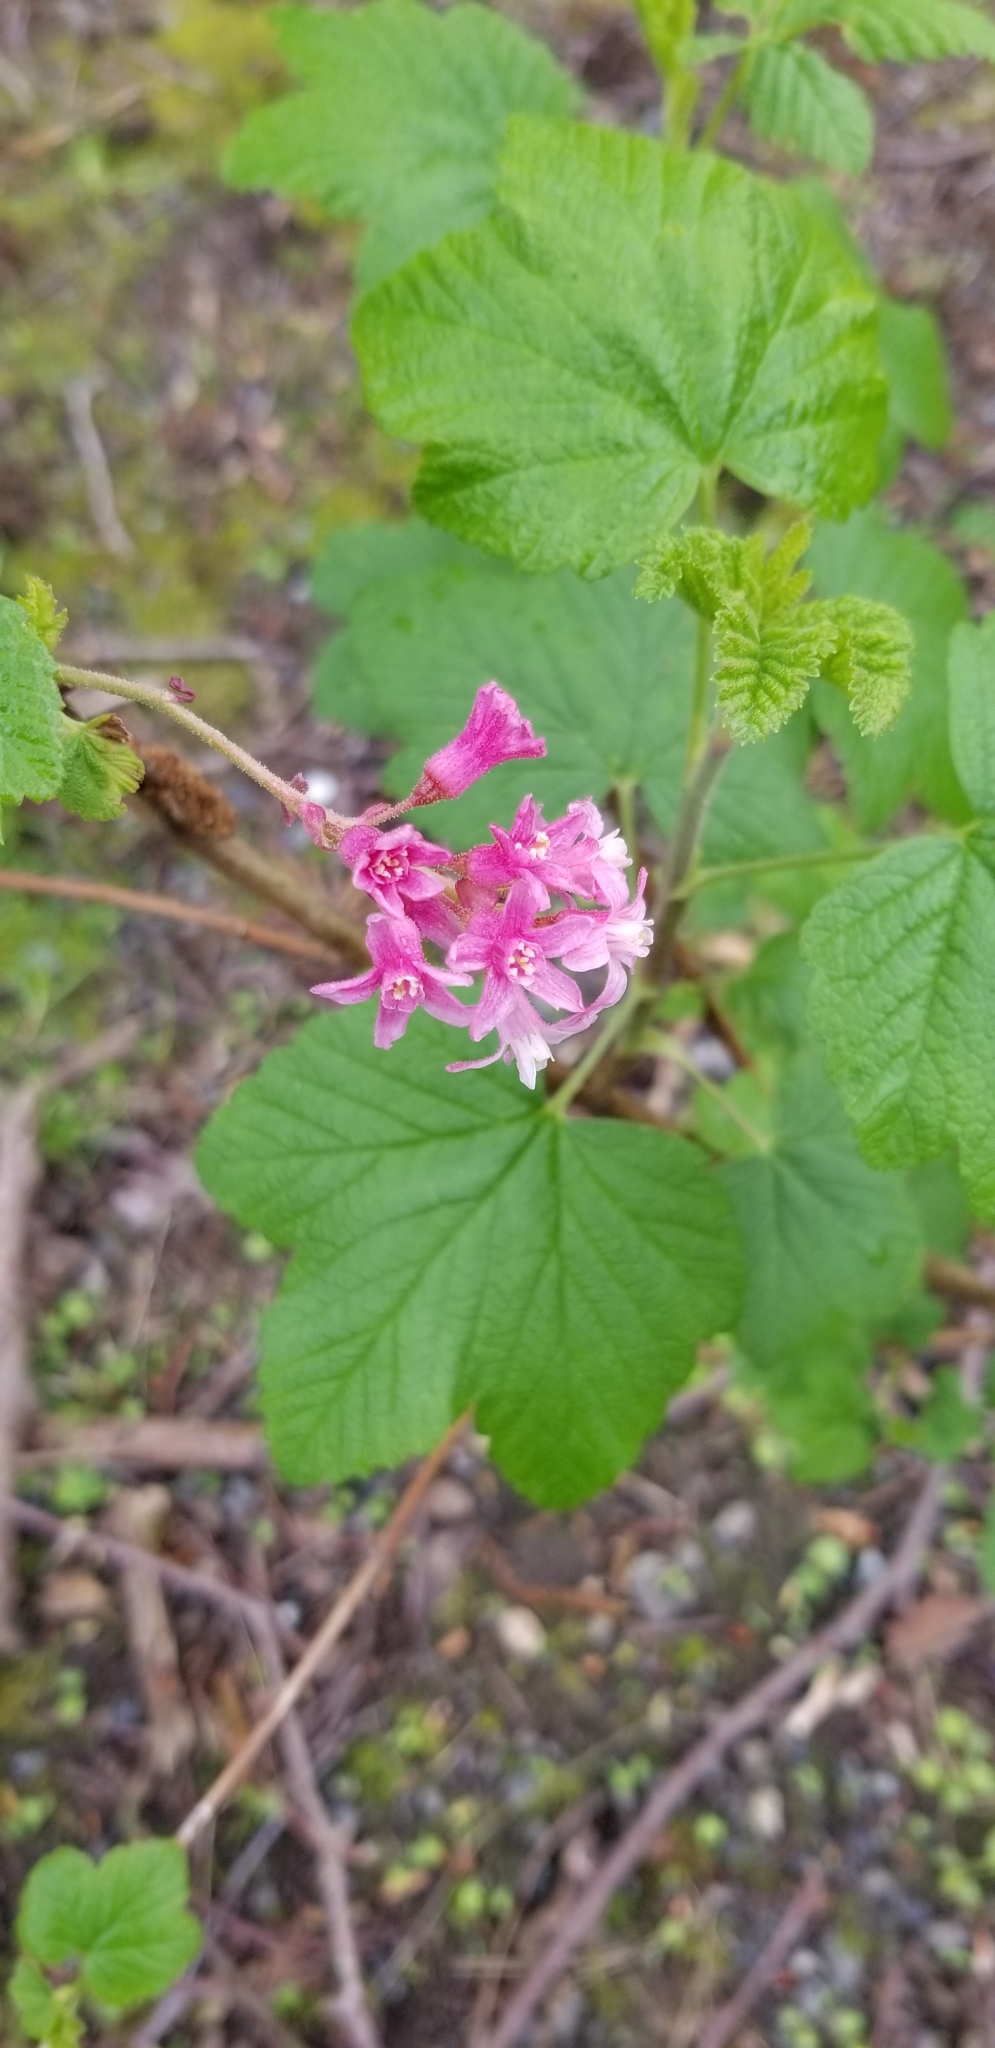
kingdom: Plantae
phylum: Tracheophyta
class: Magnoliopsida
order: Saxifragales
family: Grossulariaceae
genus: Ribes
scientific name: Ribes sanguineum
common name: Flowering currant
